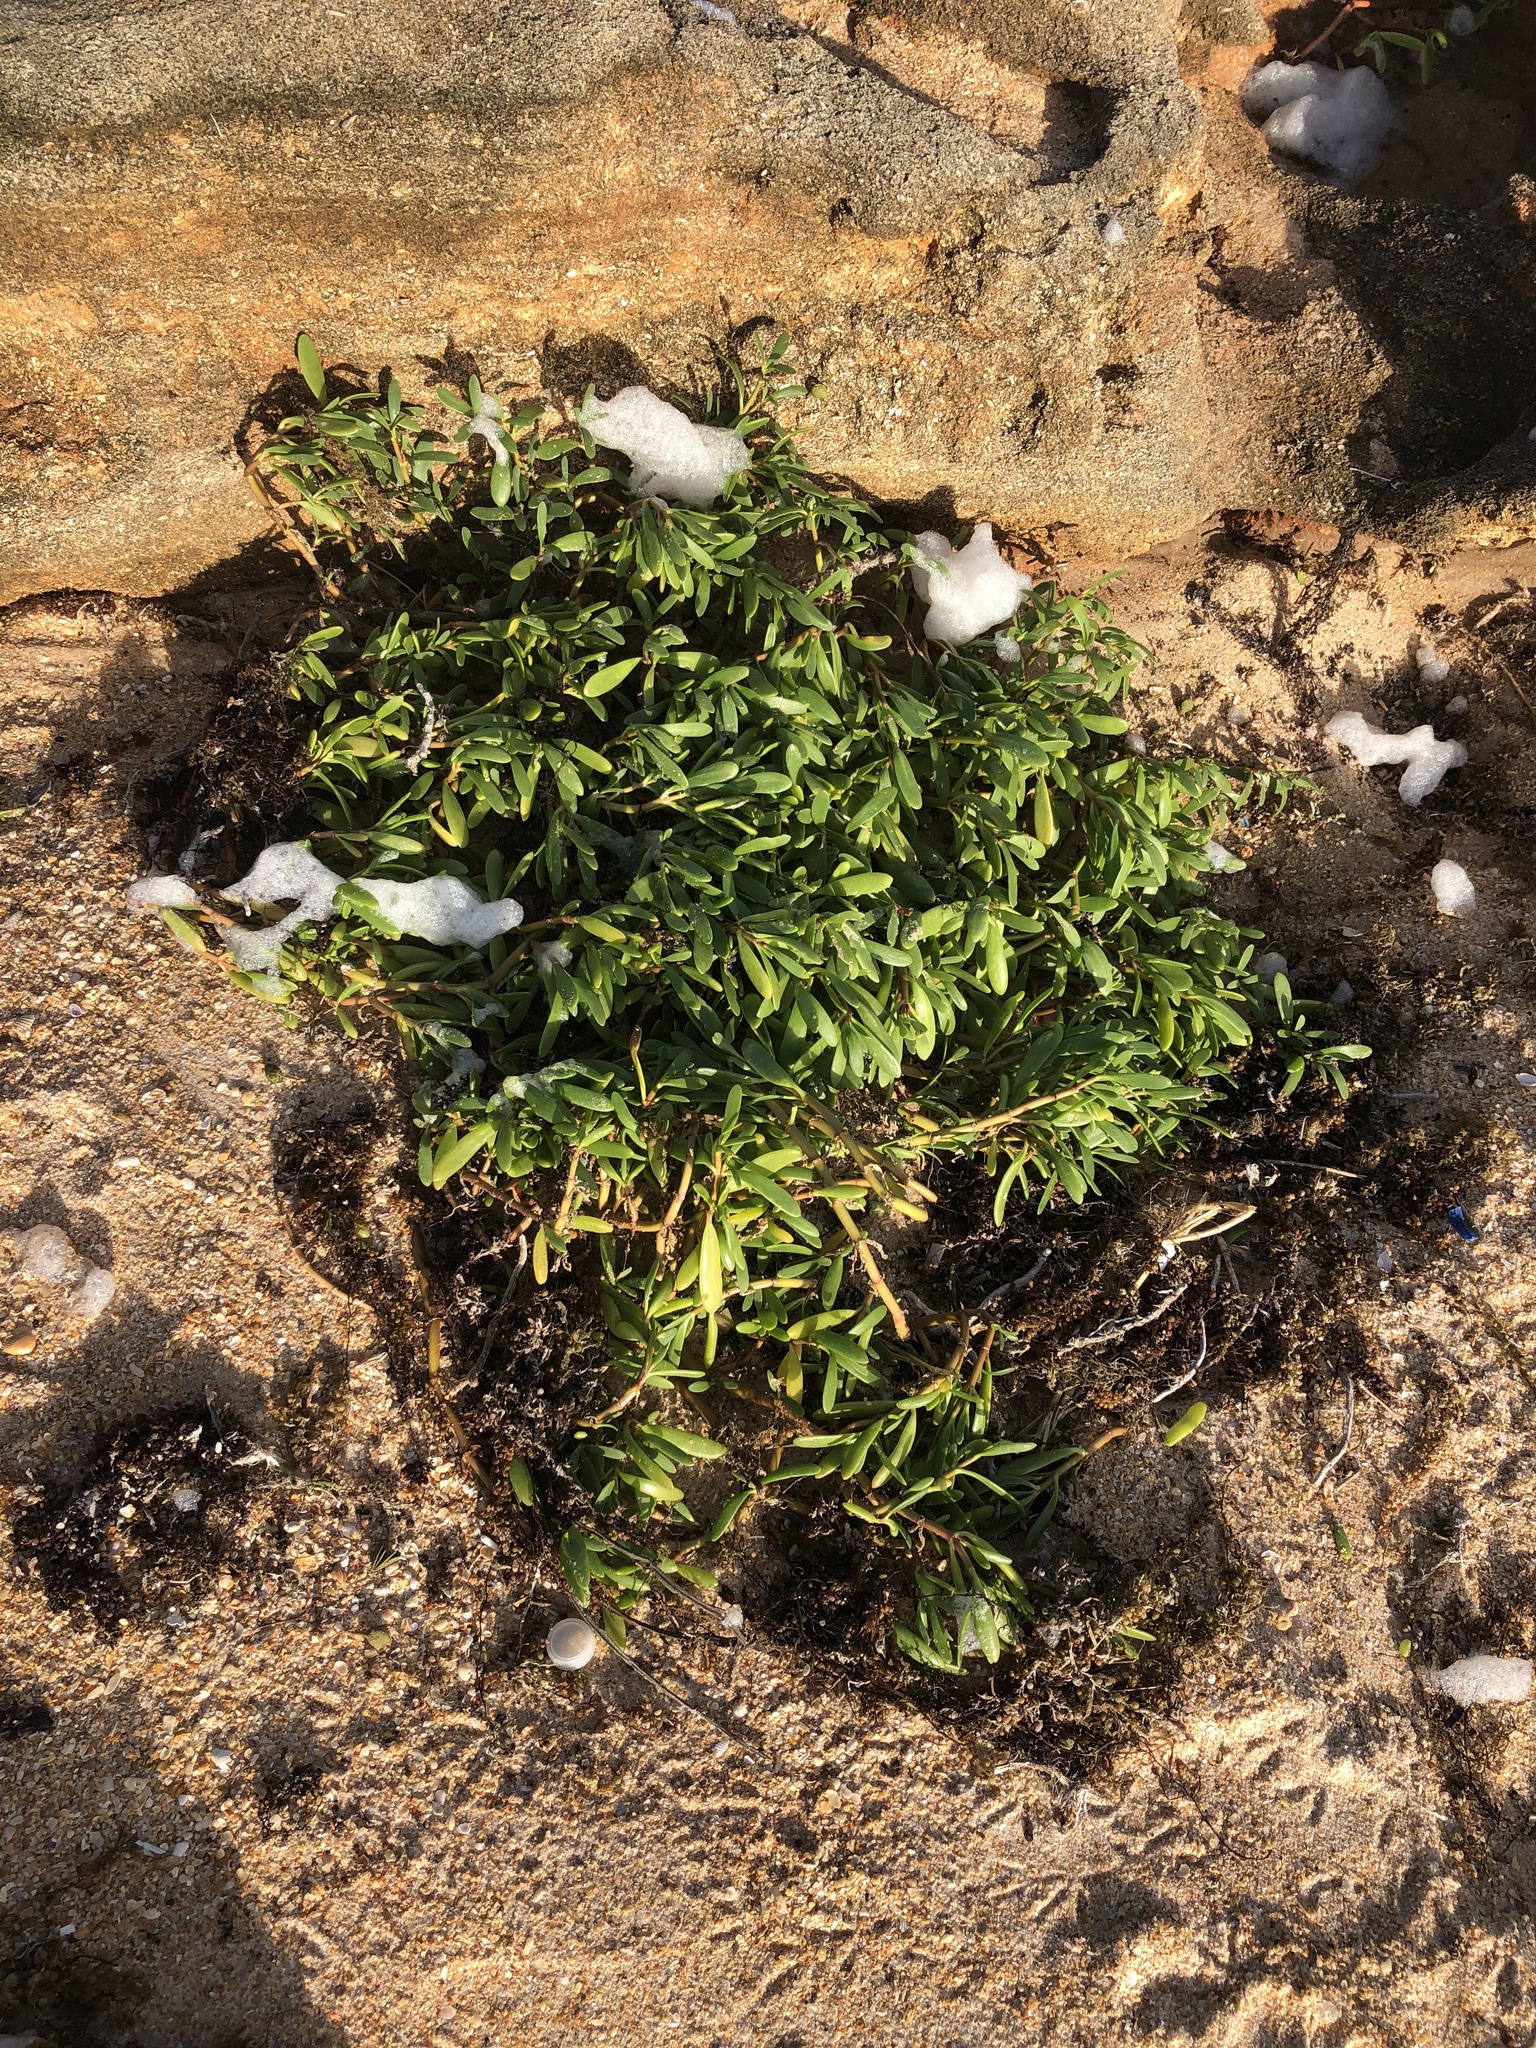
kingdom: Plantae
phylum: Tracheophyta
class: Magnoliopsida
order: Caryophyllales
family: Aizoaceae
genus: Sesuvium
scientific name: Sesuvium portulacastrum
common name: Sea-purslane
